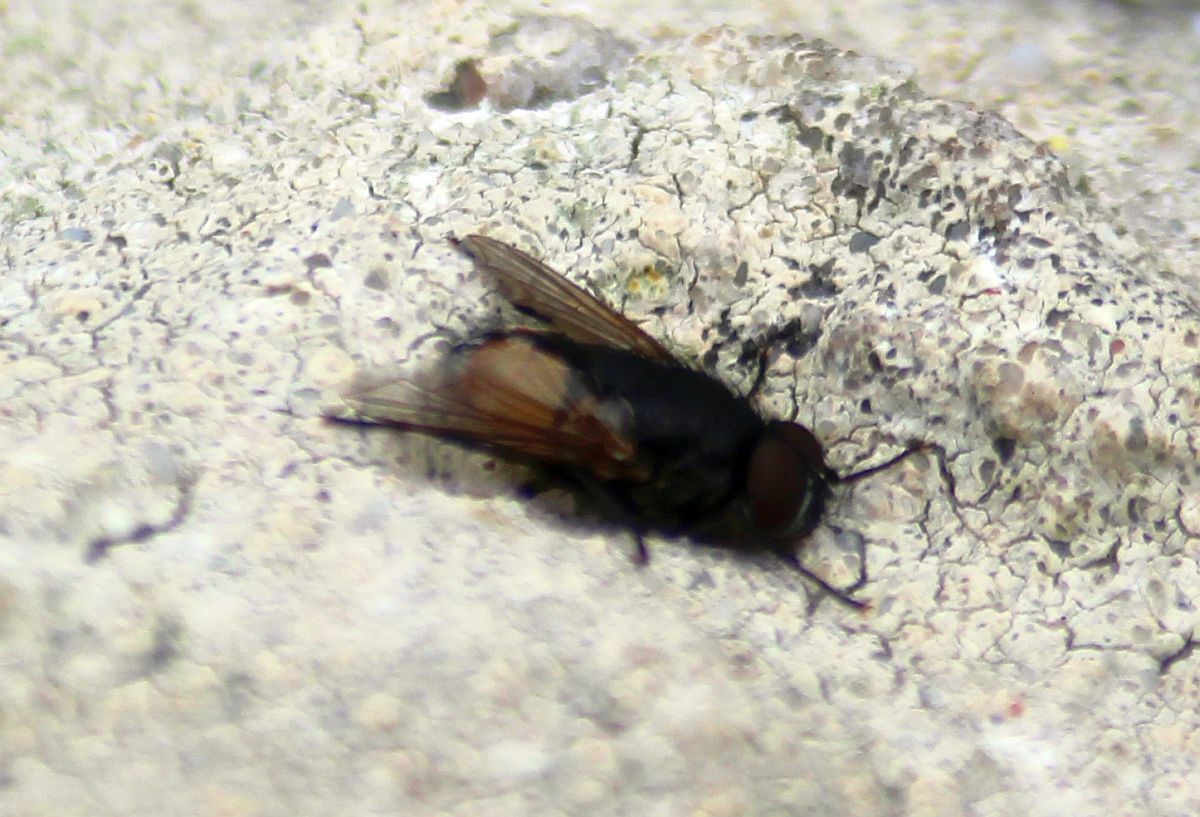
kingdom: Animalia
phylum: Arthropoda
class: Insecta
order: Diptera
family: Muscidae
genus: Musca
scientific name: Musca autumnalis
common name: Face fly
